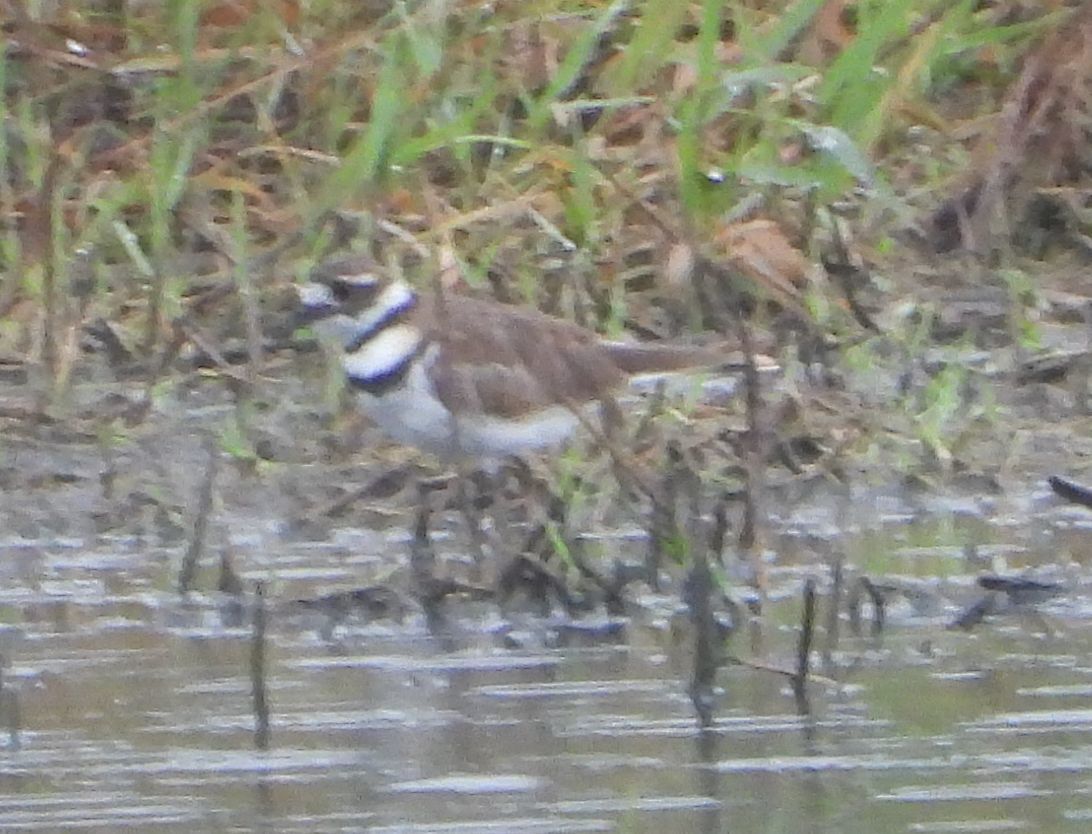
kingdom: Animalia
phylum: Chordata
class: Aves
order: Charadriiformes
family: Charadriidae
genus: Charadrius
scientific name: Charadrius vociferus
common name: Killdeer
